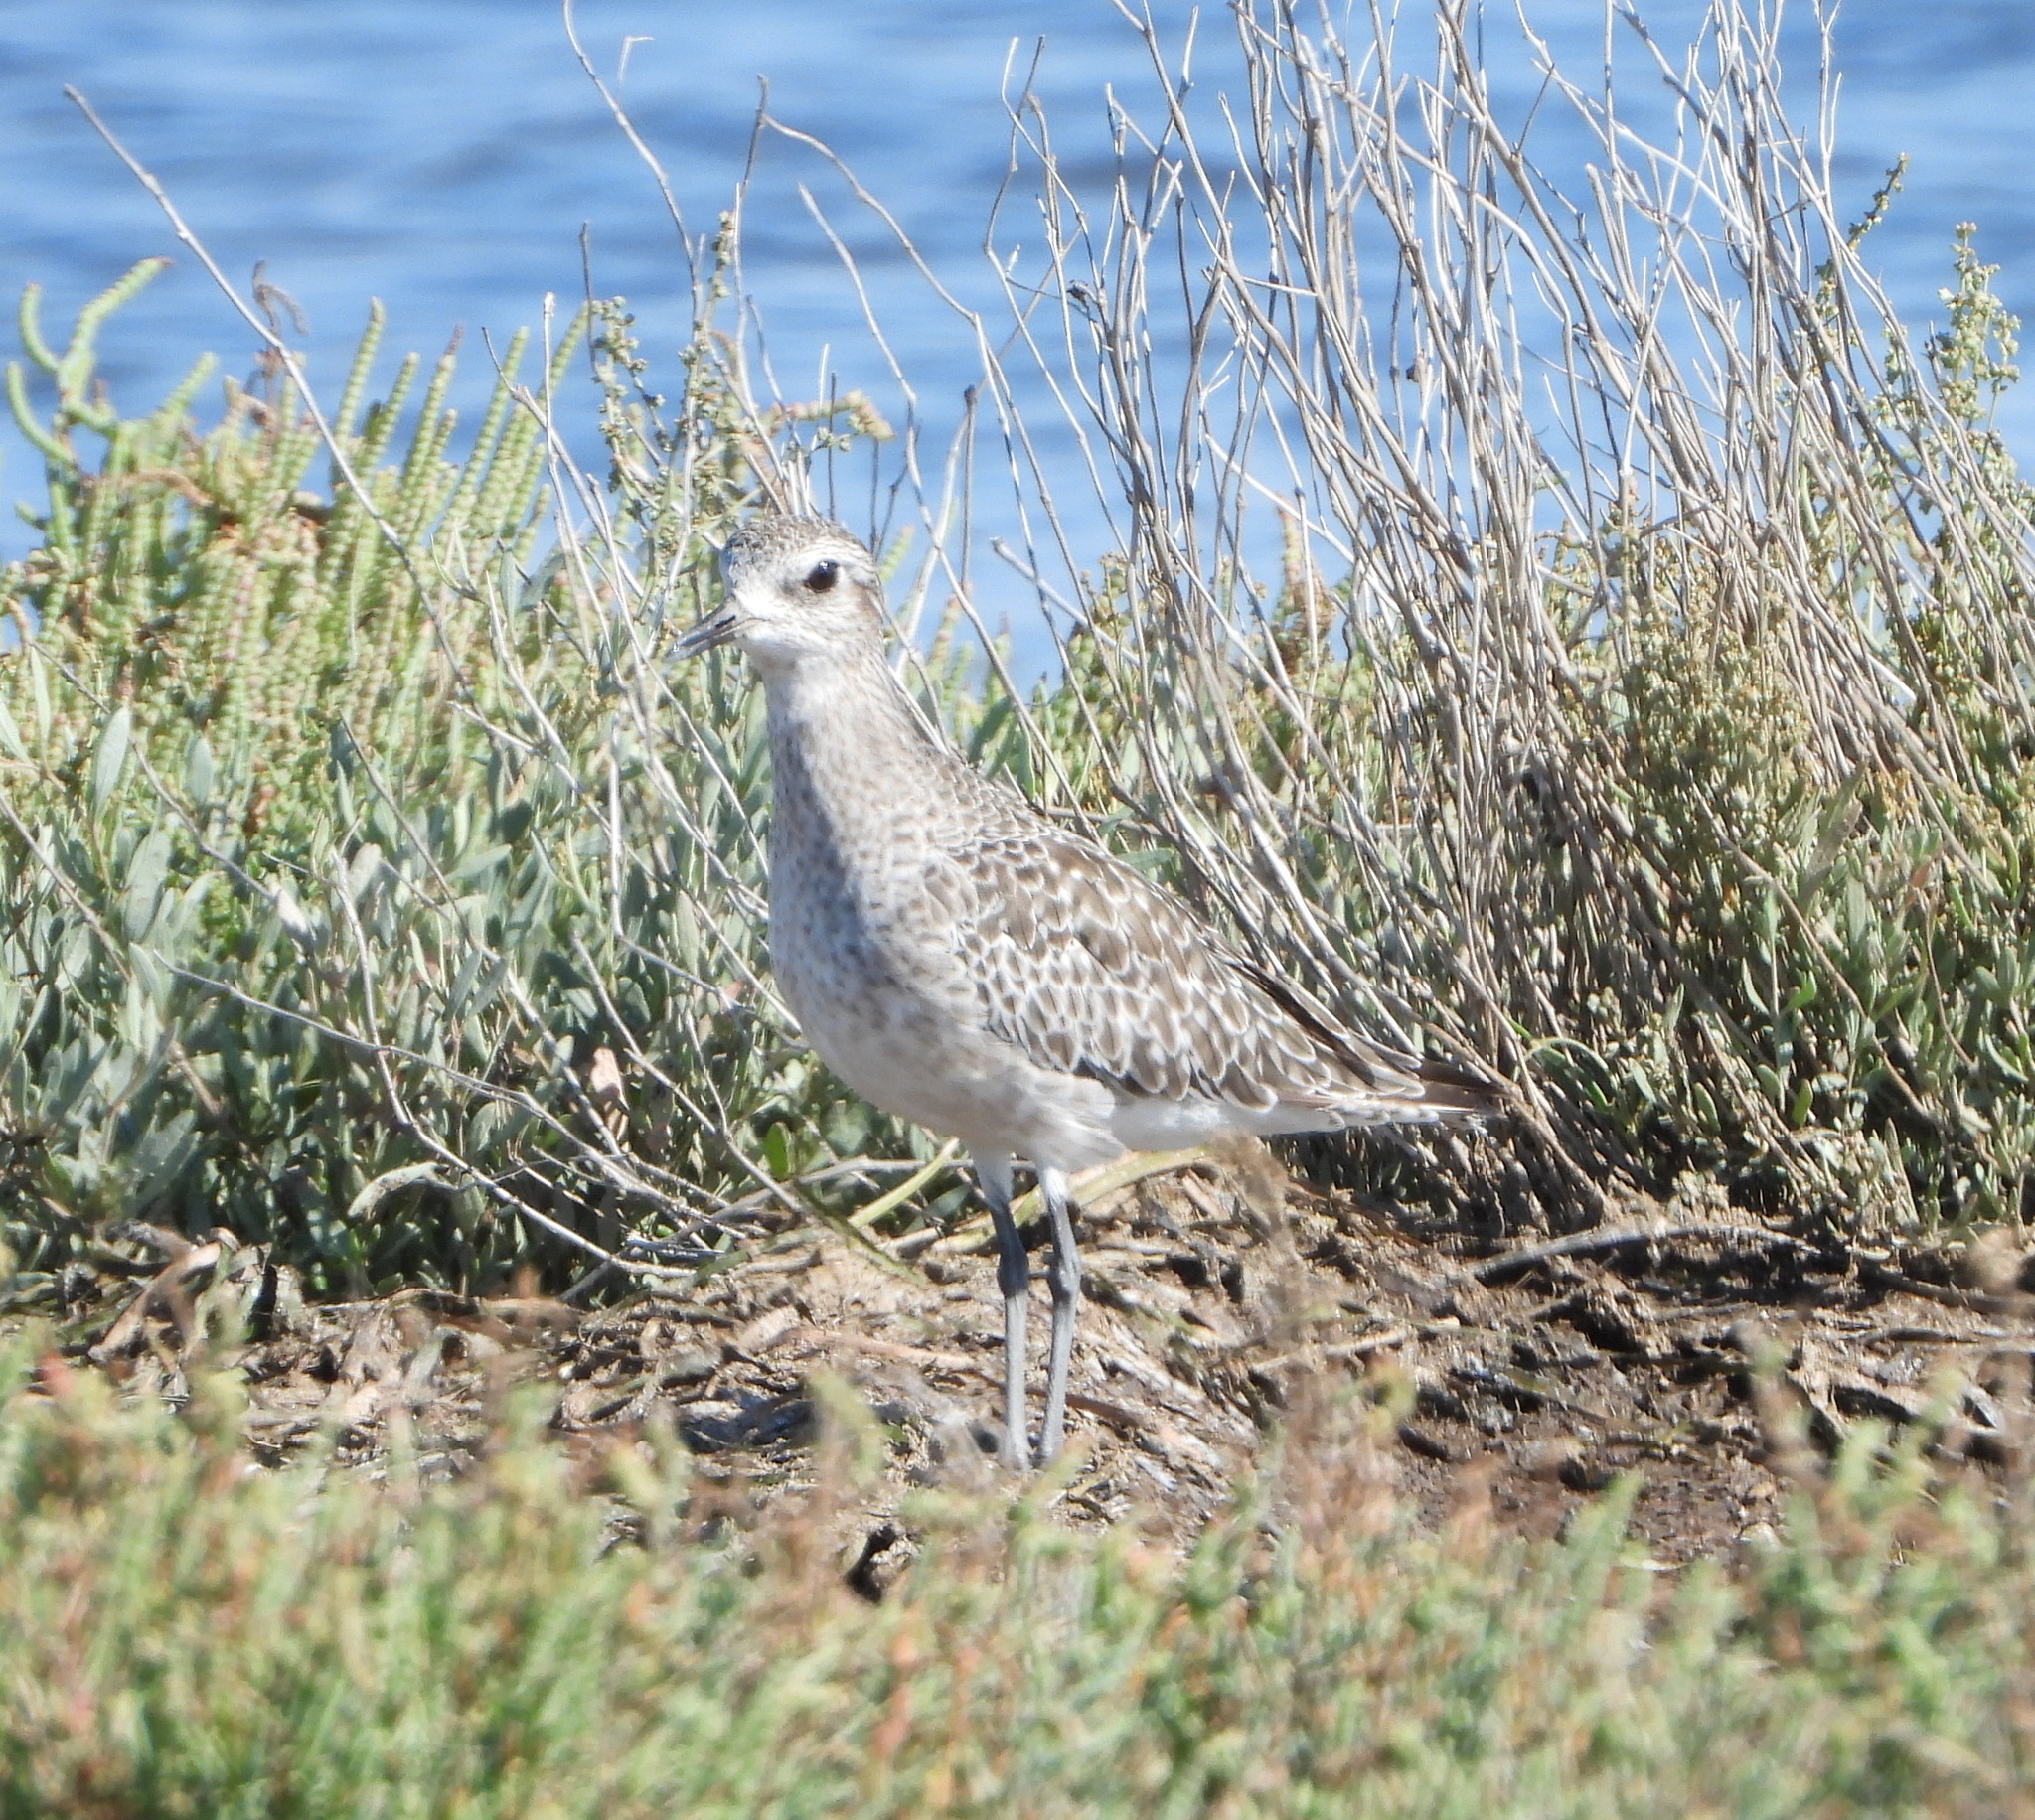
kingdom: Animalia
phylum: Chordata
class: Aves
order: Charadriiformes
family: Charadriidae
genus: Pluvialis
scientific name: Pluvialis squatarola
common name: Grey plover
